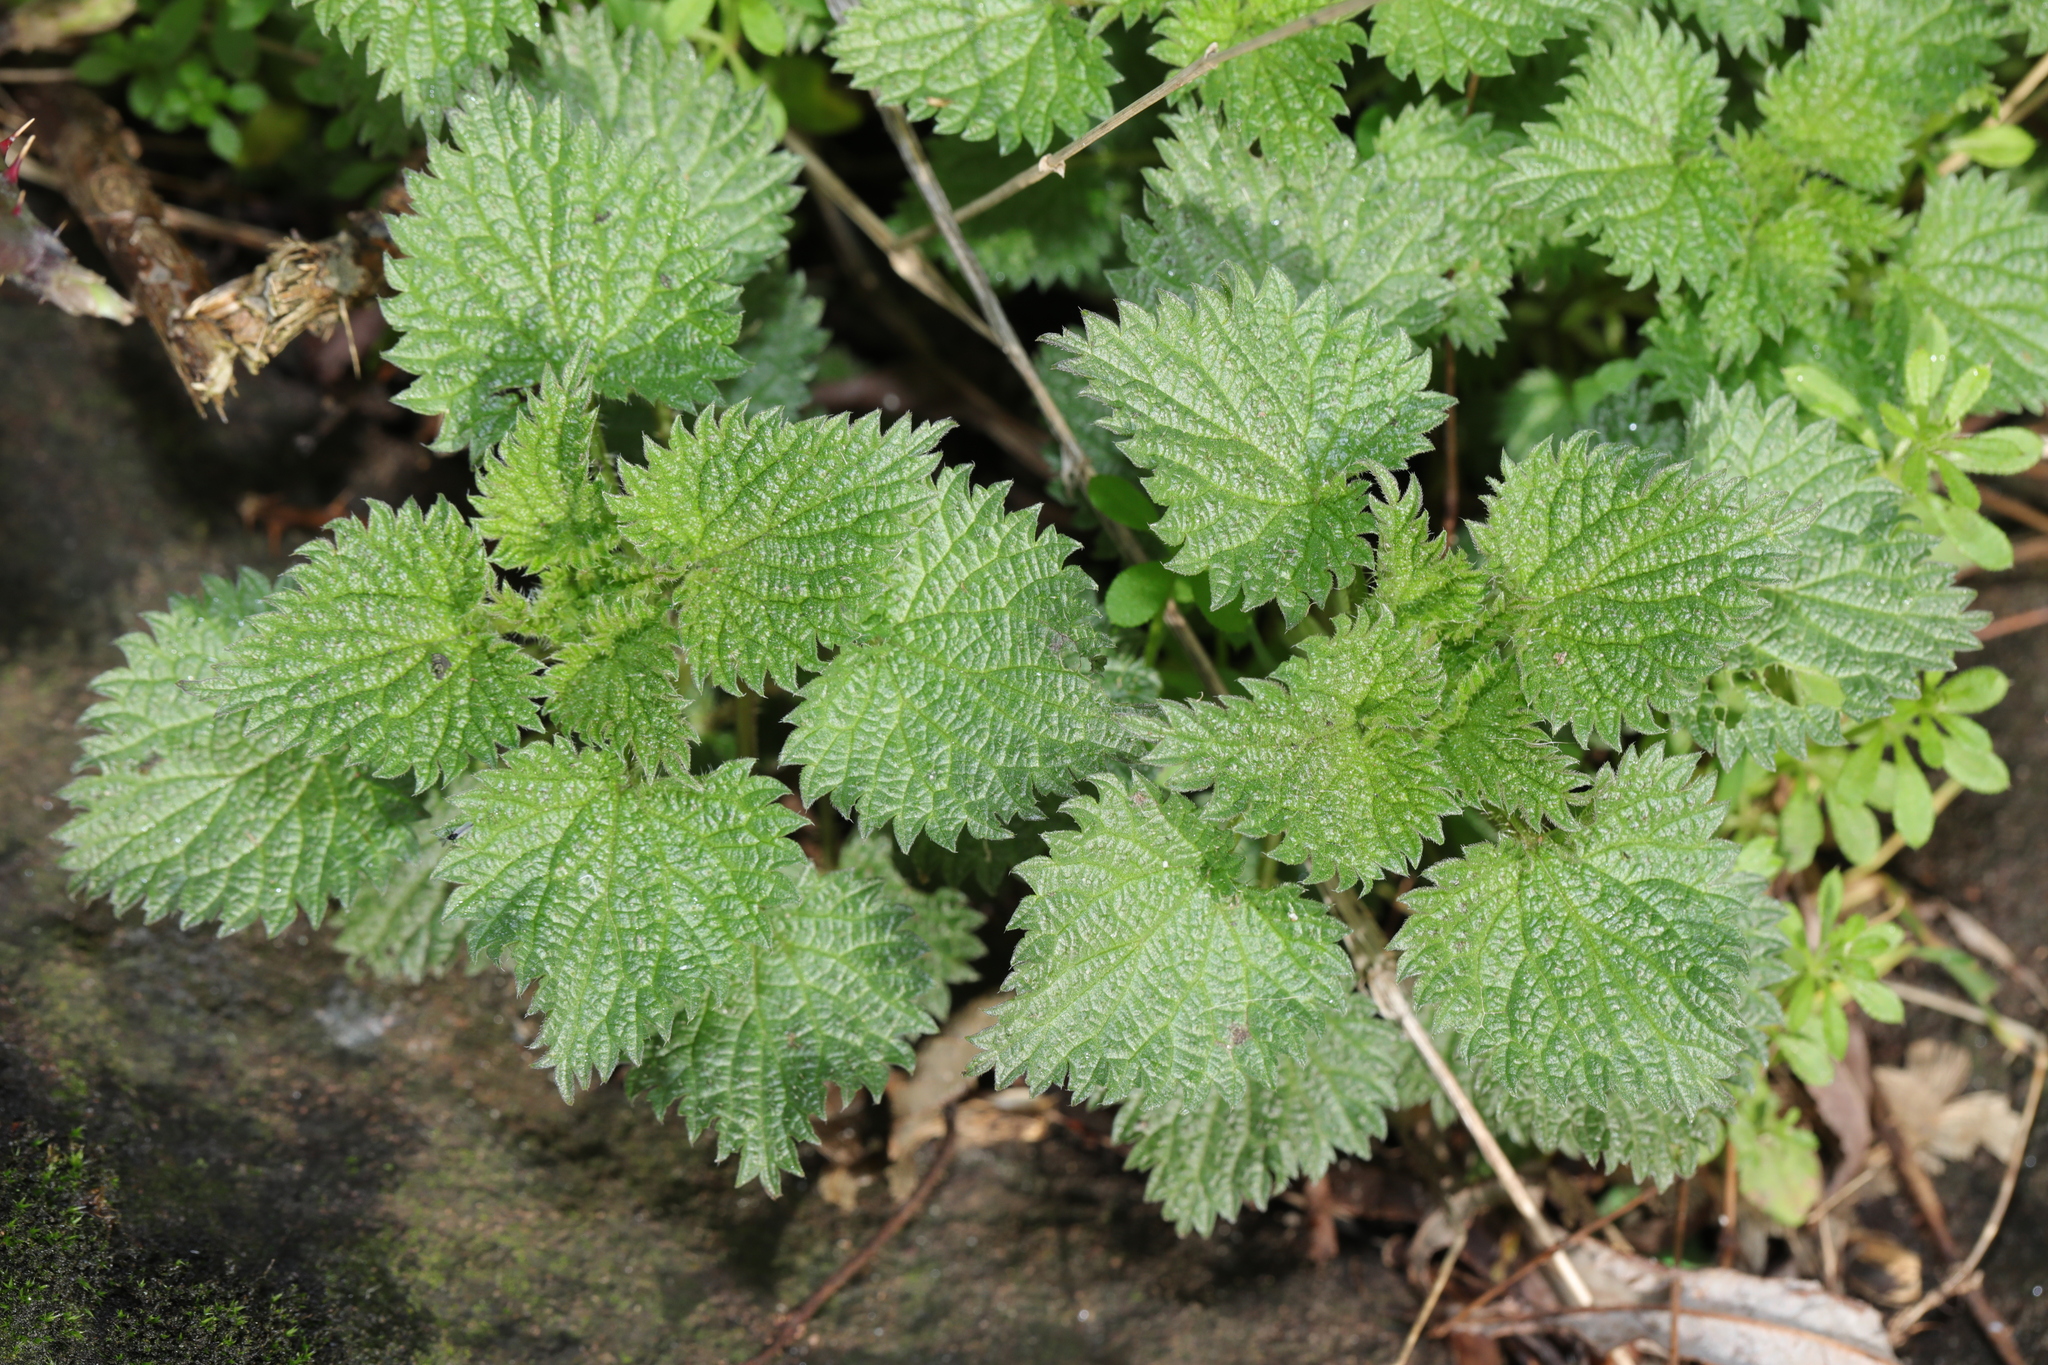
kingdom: Plantae
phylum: Tracheophyta
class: Magnoliopsida
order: Rosales
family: Urticaceae
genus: Urtica
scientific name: Urtica dioica
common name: Common nettle
